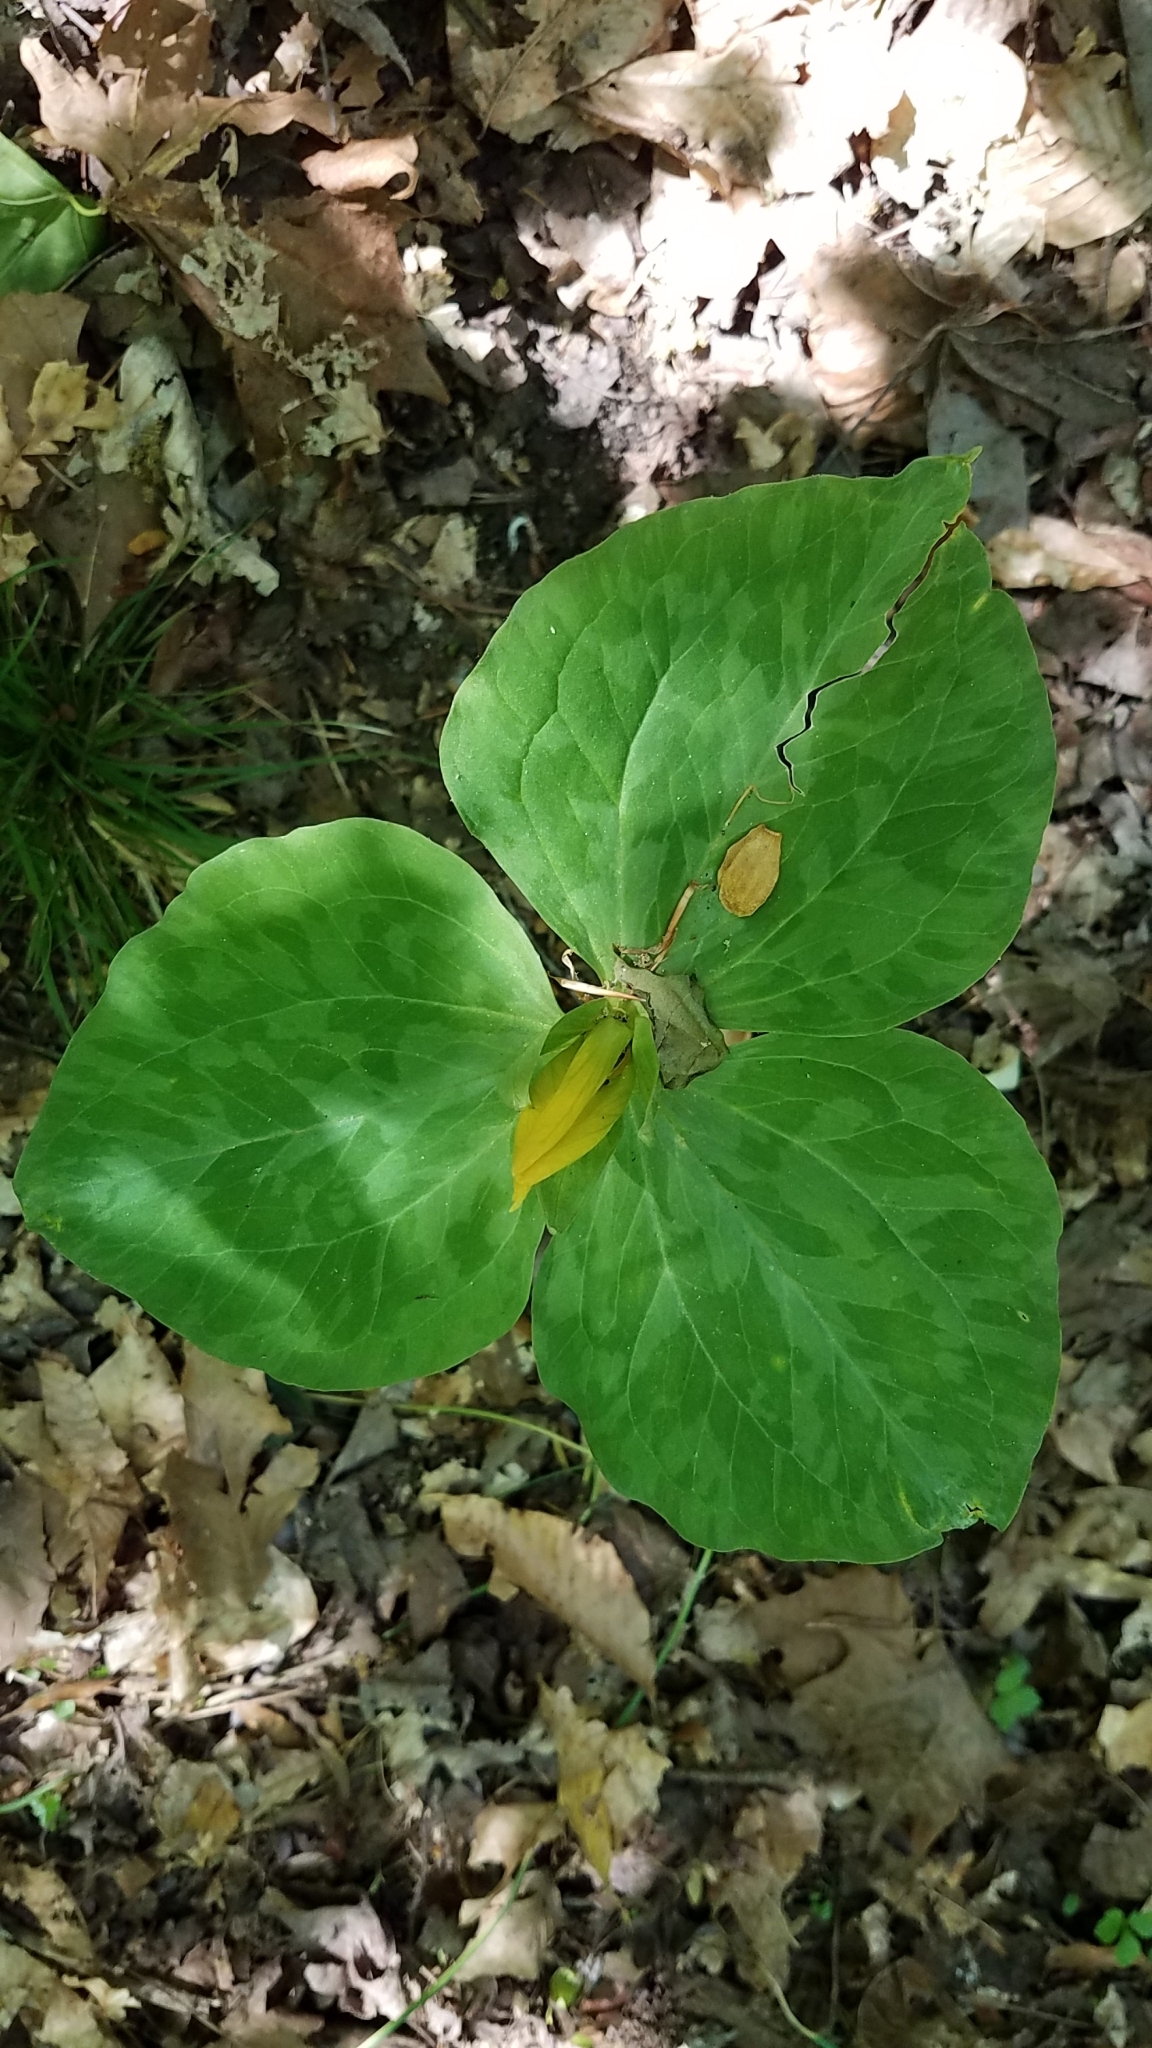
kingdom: Plantae
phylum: Tracheophyta
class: Liliopsida
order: Liliales
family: Melanthiaceae
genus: Trillium
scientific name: Trillium luteum
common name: Wax trillium
